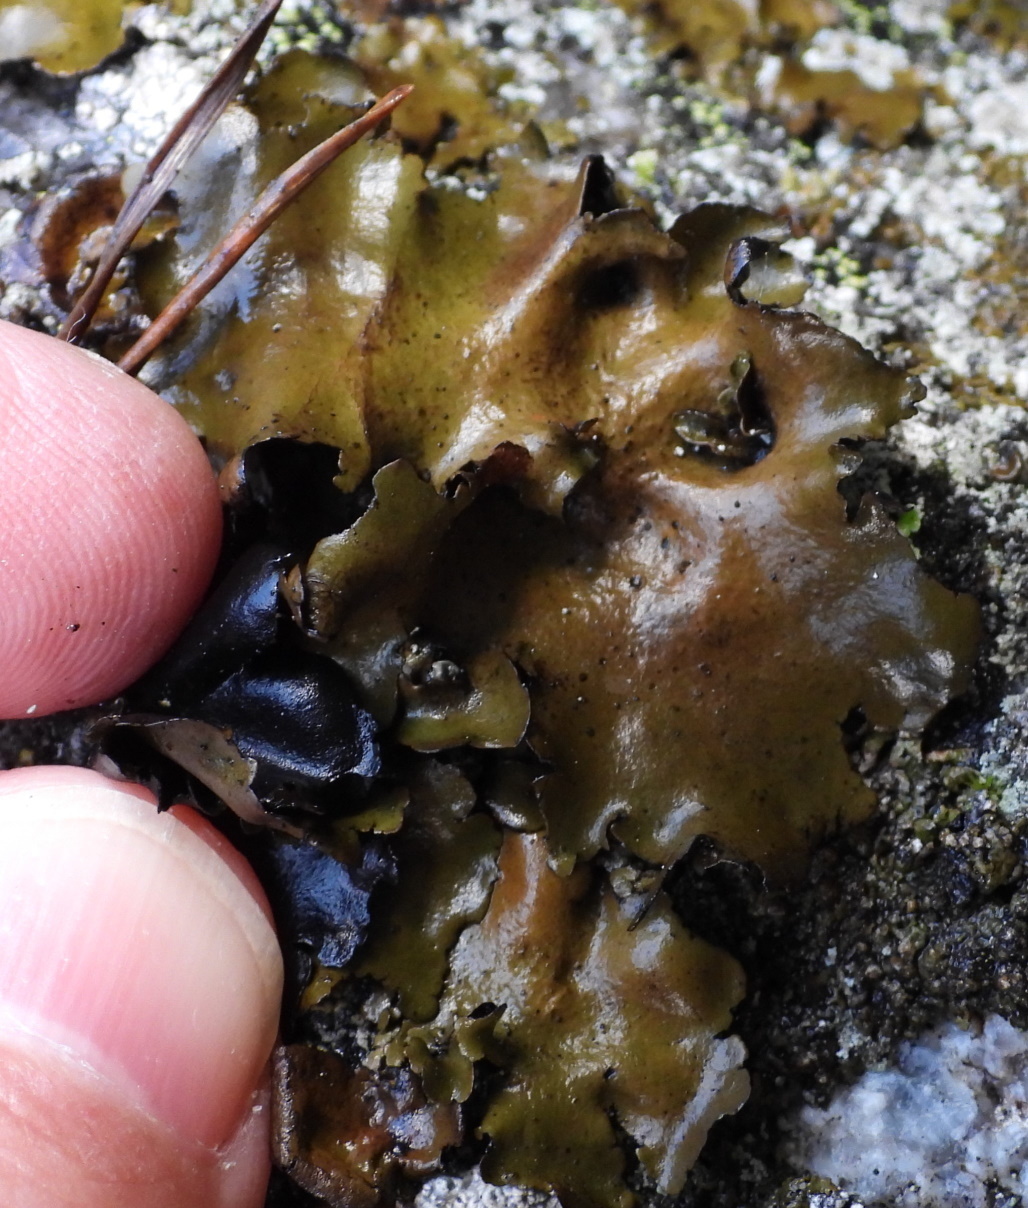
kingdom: Fungi
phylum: Ascomycota
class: Lecanoromycetes
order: Umbilicariales
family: Umbilicariaceae
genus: Umbilicaria
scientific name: Umbilicaria polyphylla
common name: Petalled rocktripe lichen
